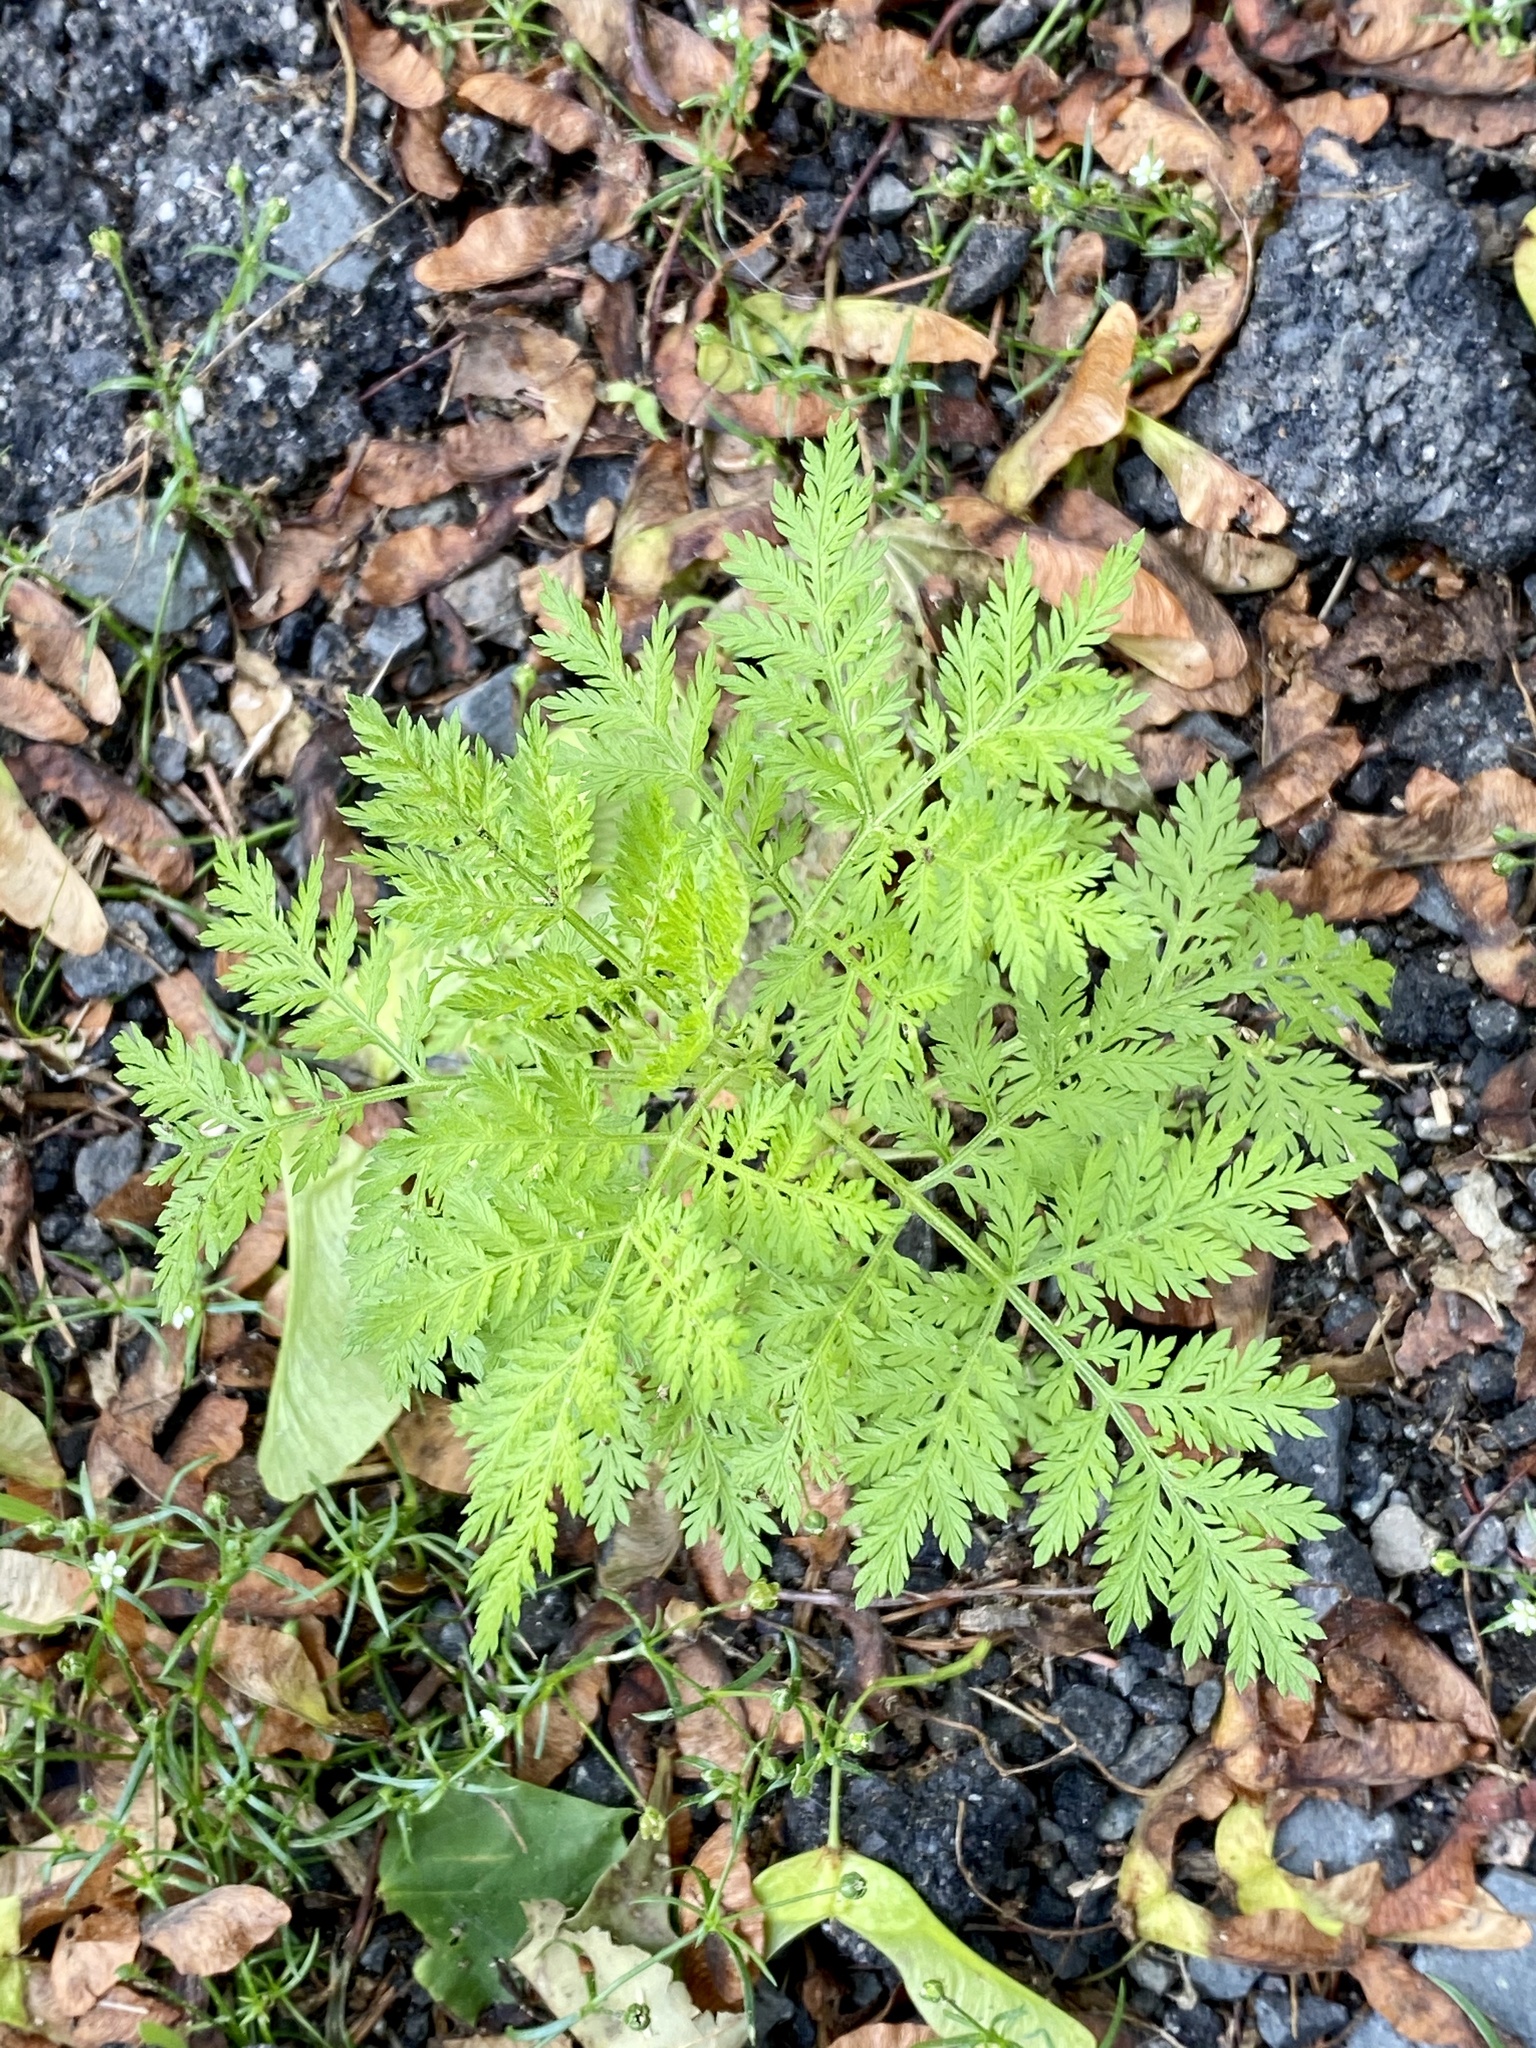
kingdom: Plantae
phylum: Tracheophyta
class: Magnoliopsida
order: Asterales
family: Asteraceae
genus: Artemisia
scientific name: Artemisia annua
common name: Sweet sagewort
